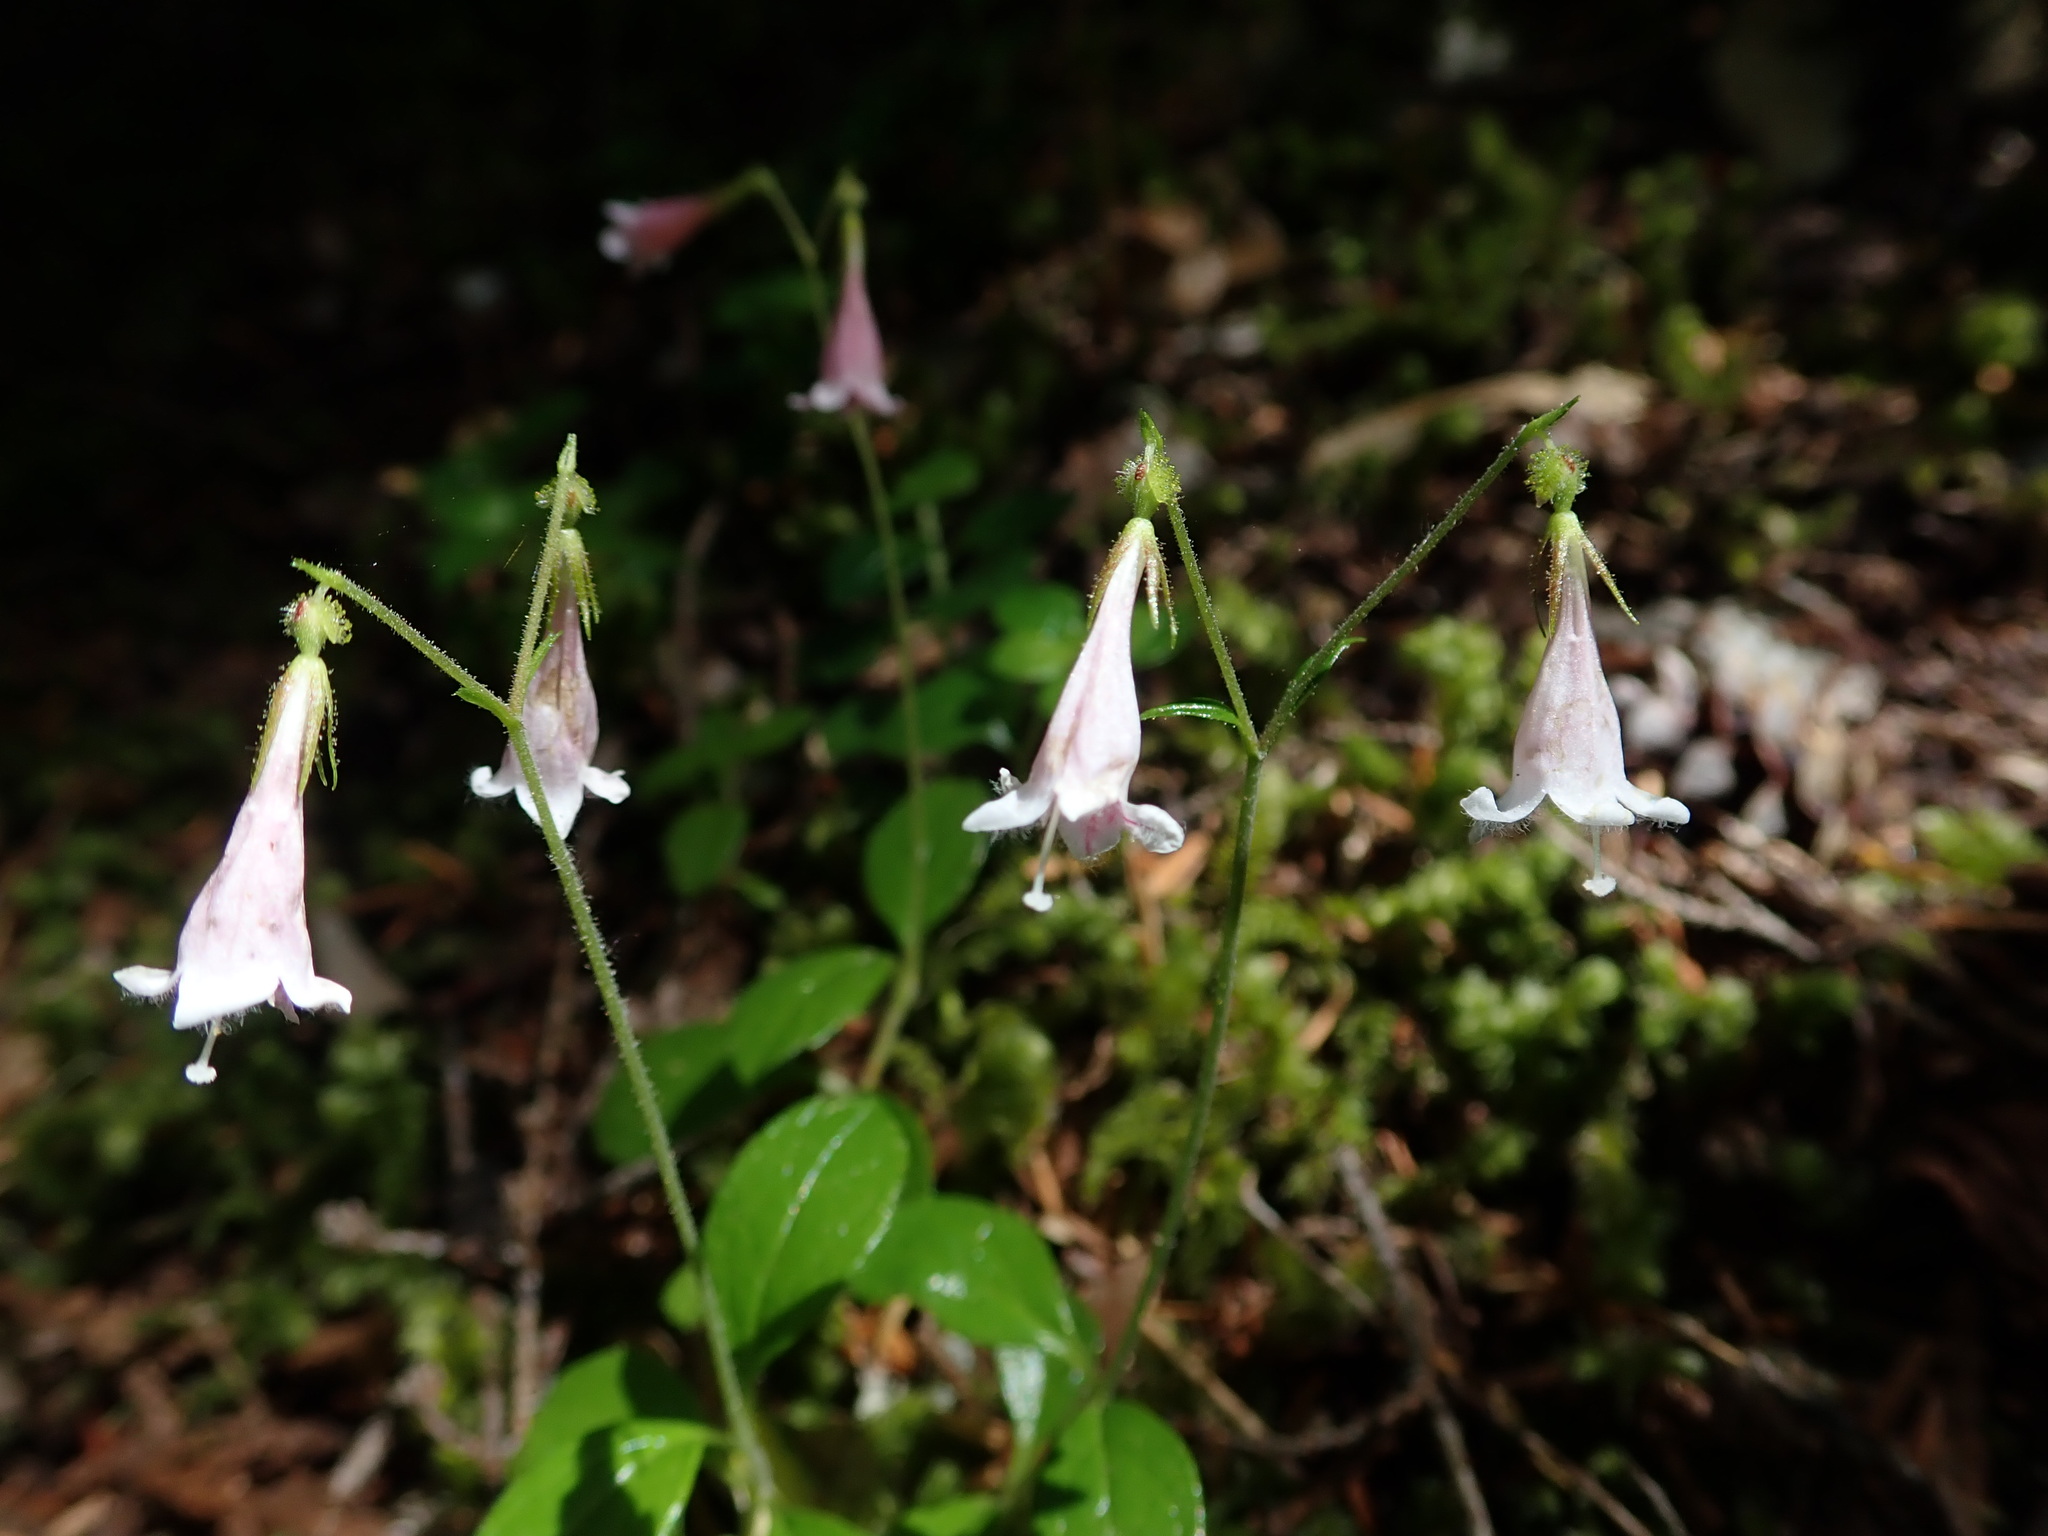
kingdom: Plantae
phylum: Tracheophyta
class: Magnoliopsida
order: Dipsacales
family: Caprifoliaceae
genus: Linnaea
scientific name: Linnaea borealis
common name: Twinflower
